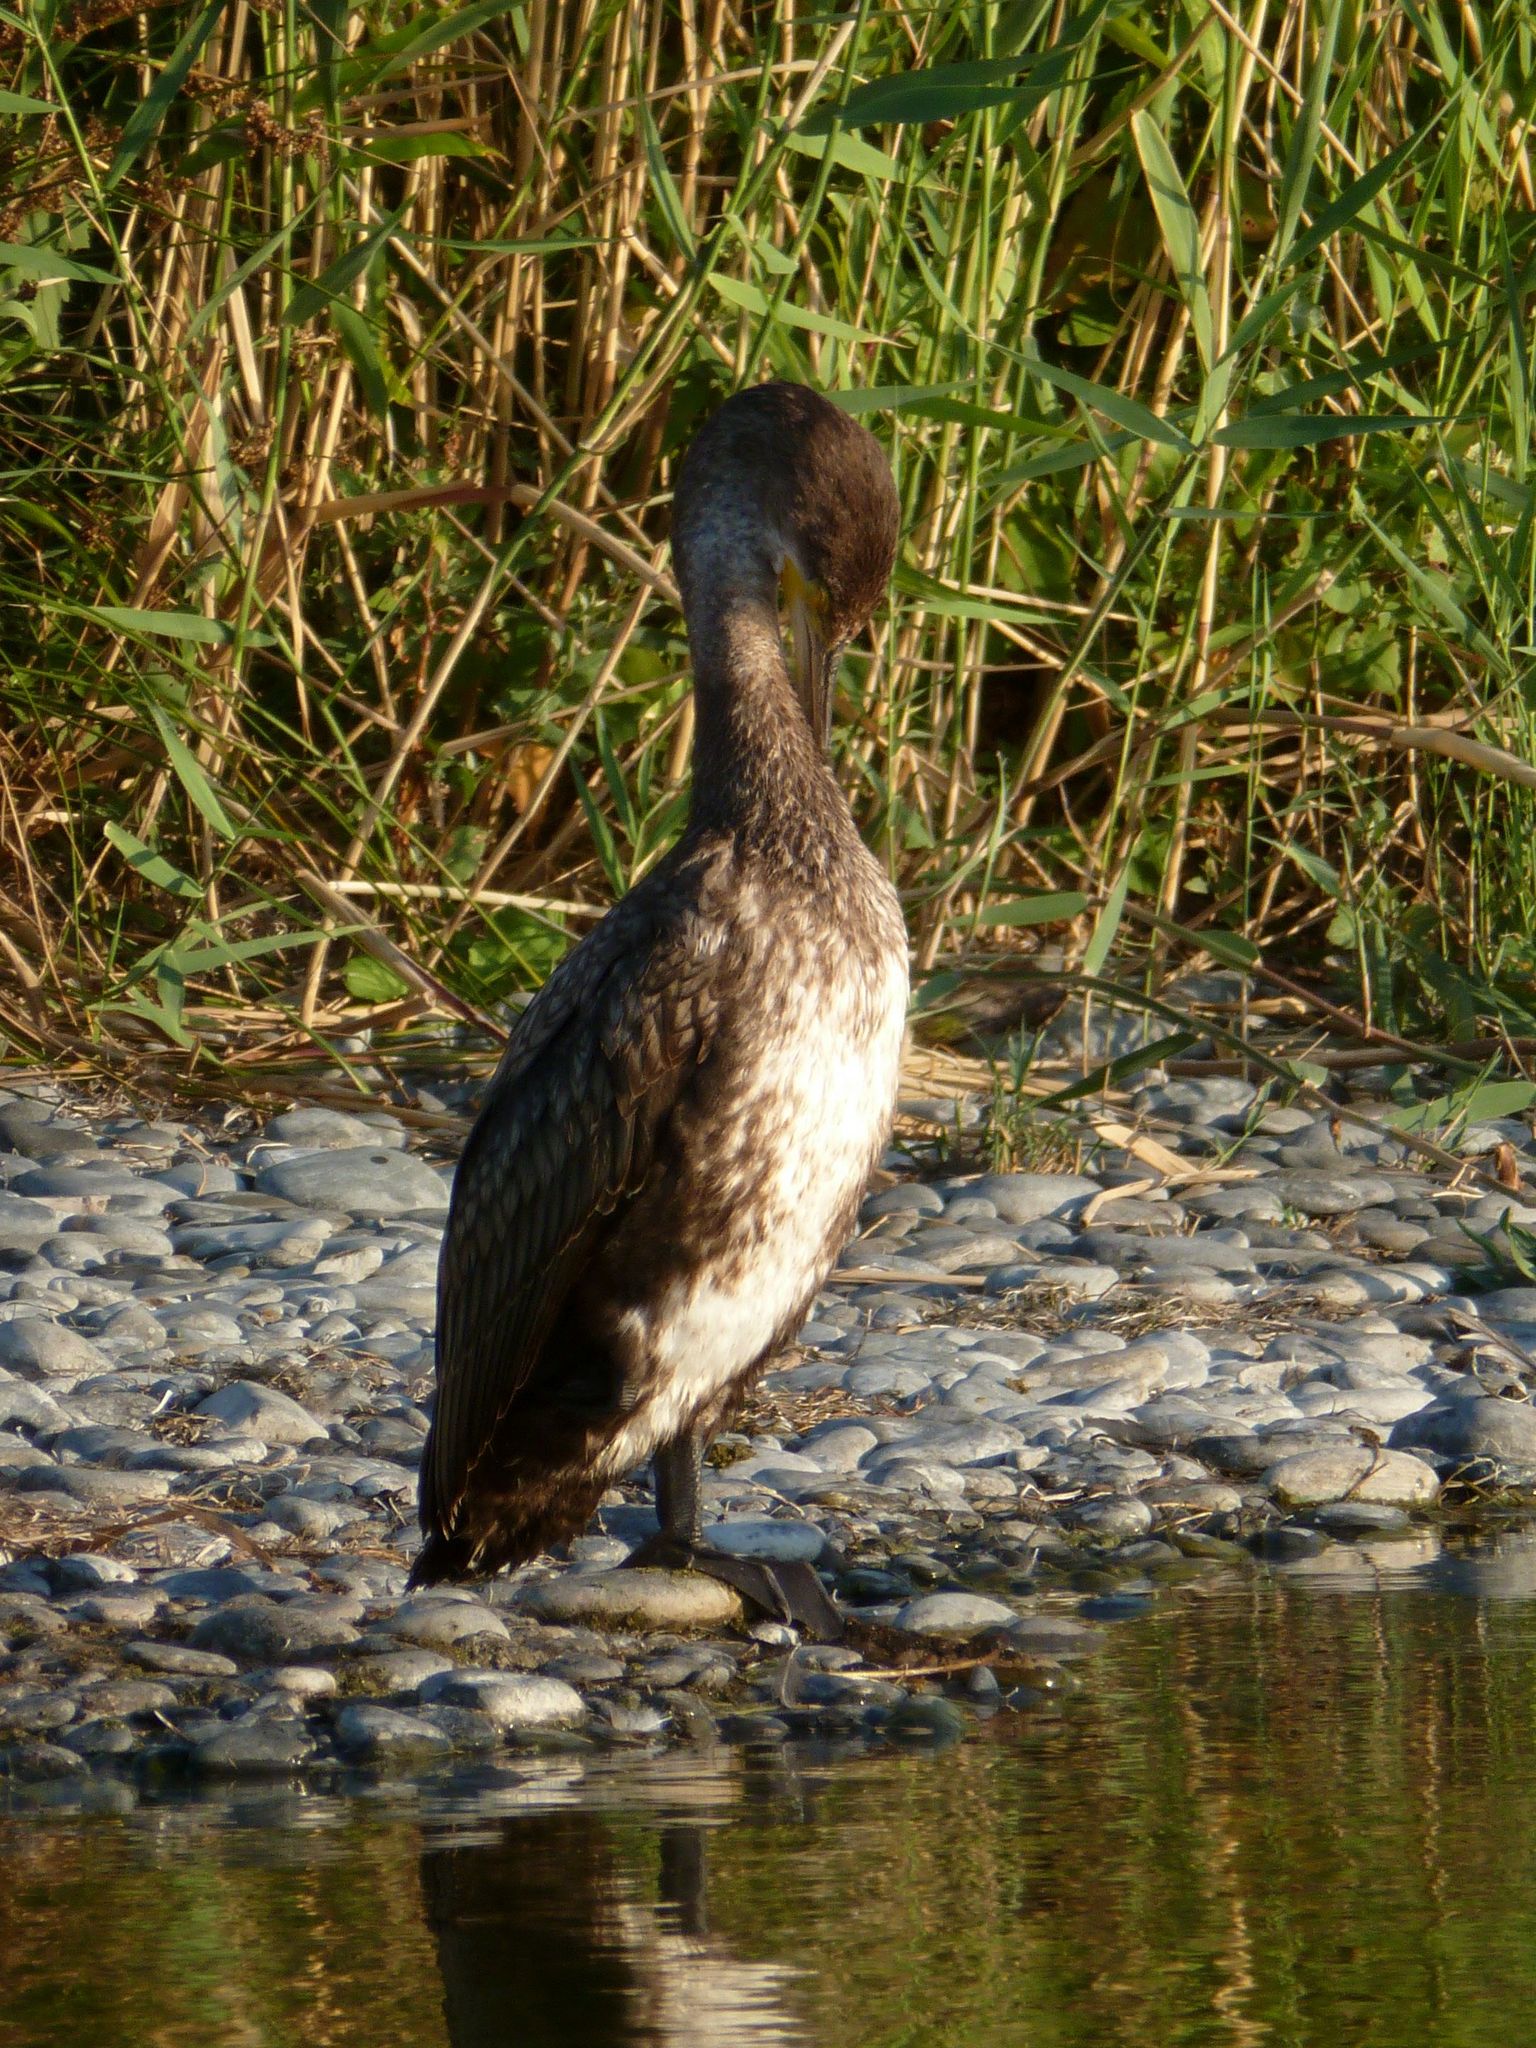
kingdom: Animalia
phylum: Chordata
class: Aves
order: Suliformes
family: Phalacrocoracidae
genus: Phalacrocorax
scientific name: Phalacrocorax carbo
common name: Great cormorant
